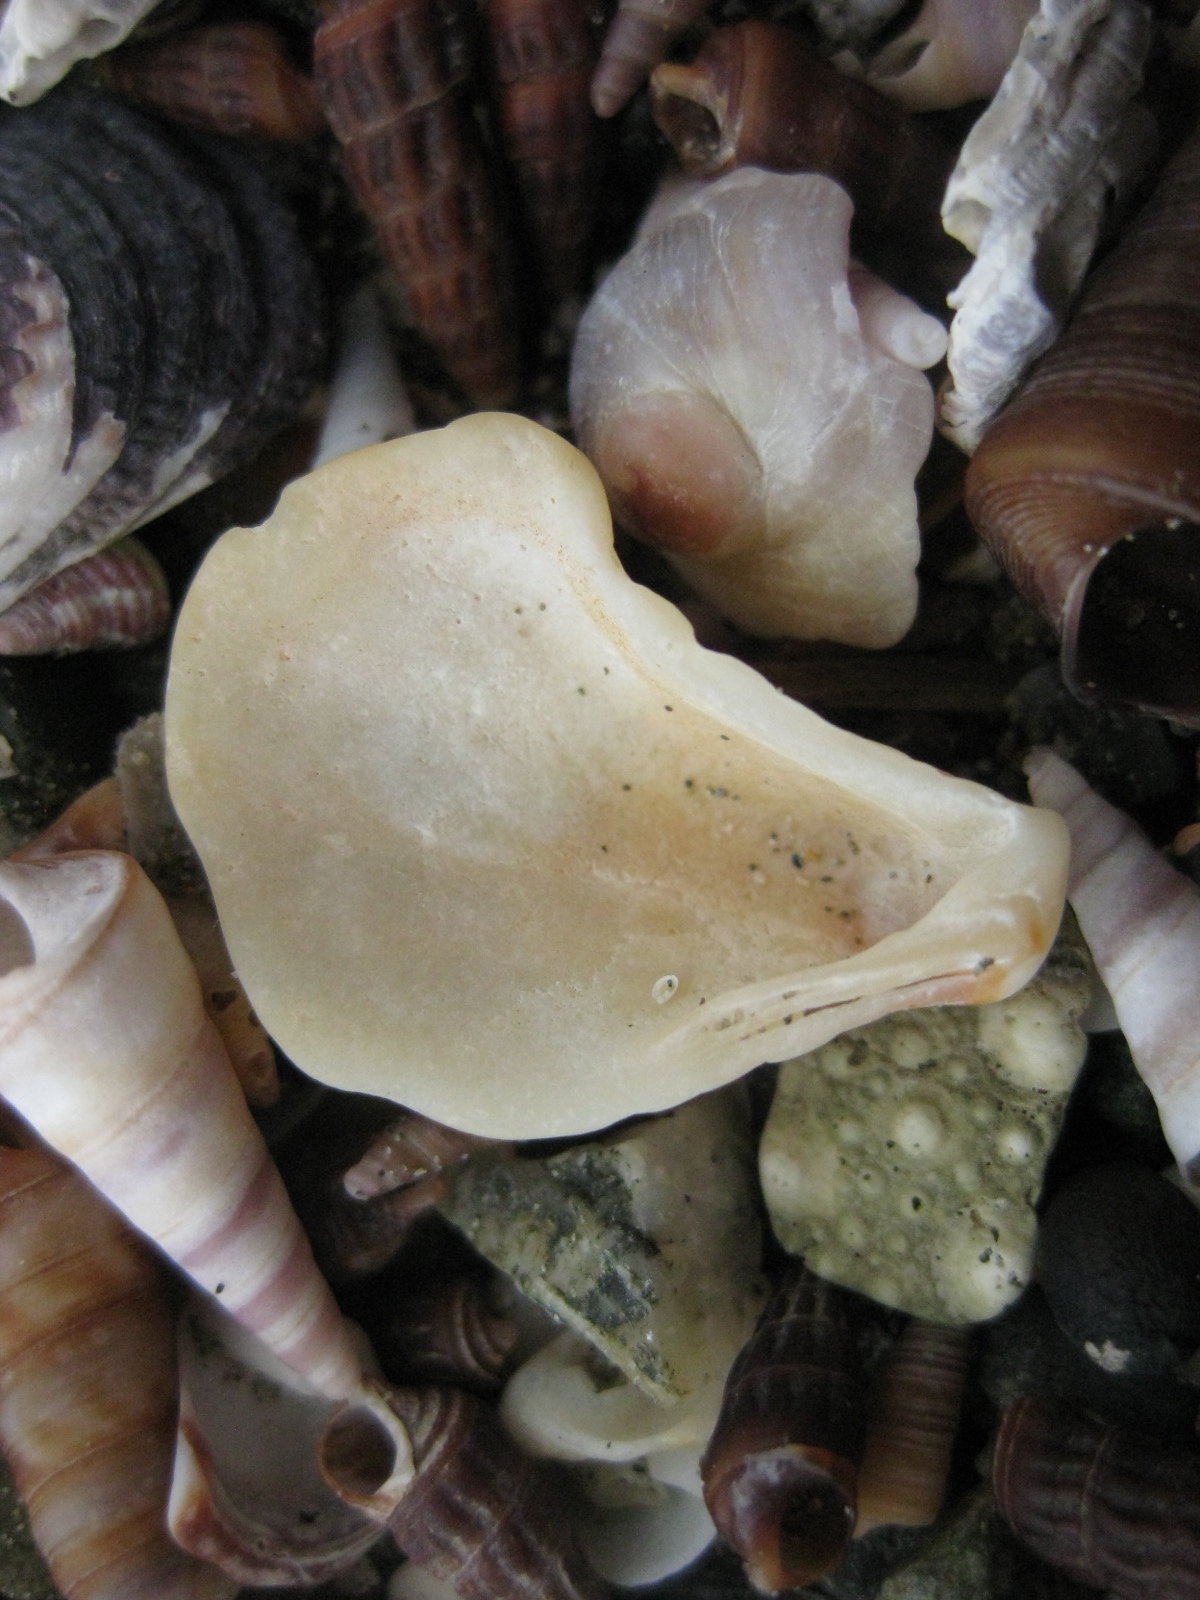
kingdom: Animalia
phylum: Mollusca
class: Bivalvia
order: Carditida
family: Carditidae
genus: Cardita
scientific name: Cardita distorta
